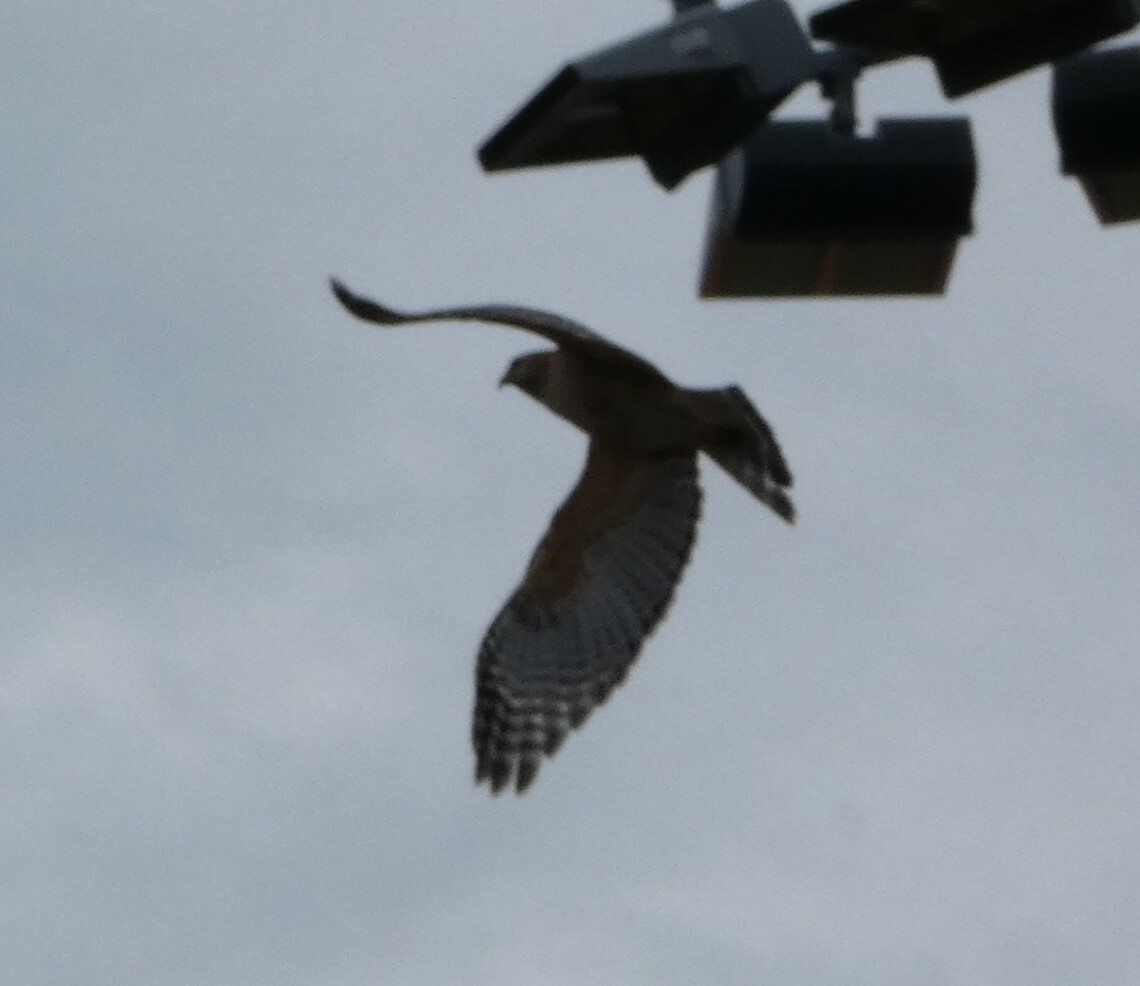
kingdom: Animalia
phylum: Chordata
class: Aves
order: Accipitriformes
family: Accipitridae
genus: Buteo
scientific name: Buteo lineatus
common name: Red-shouldered hawk
